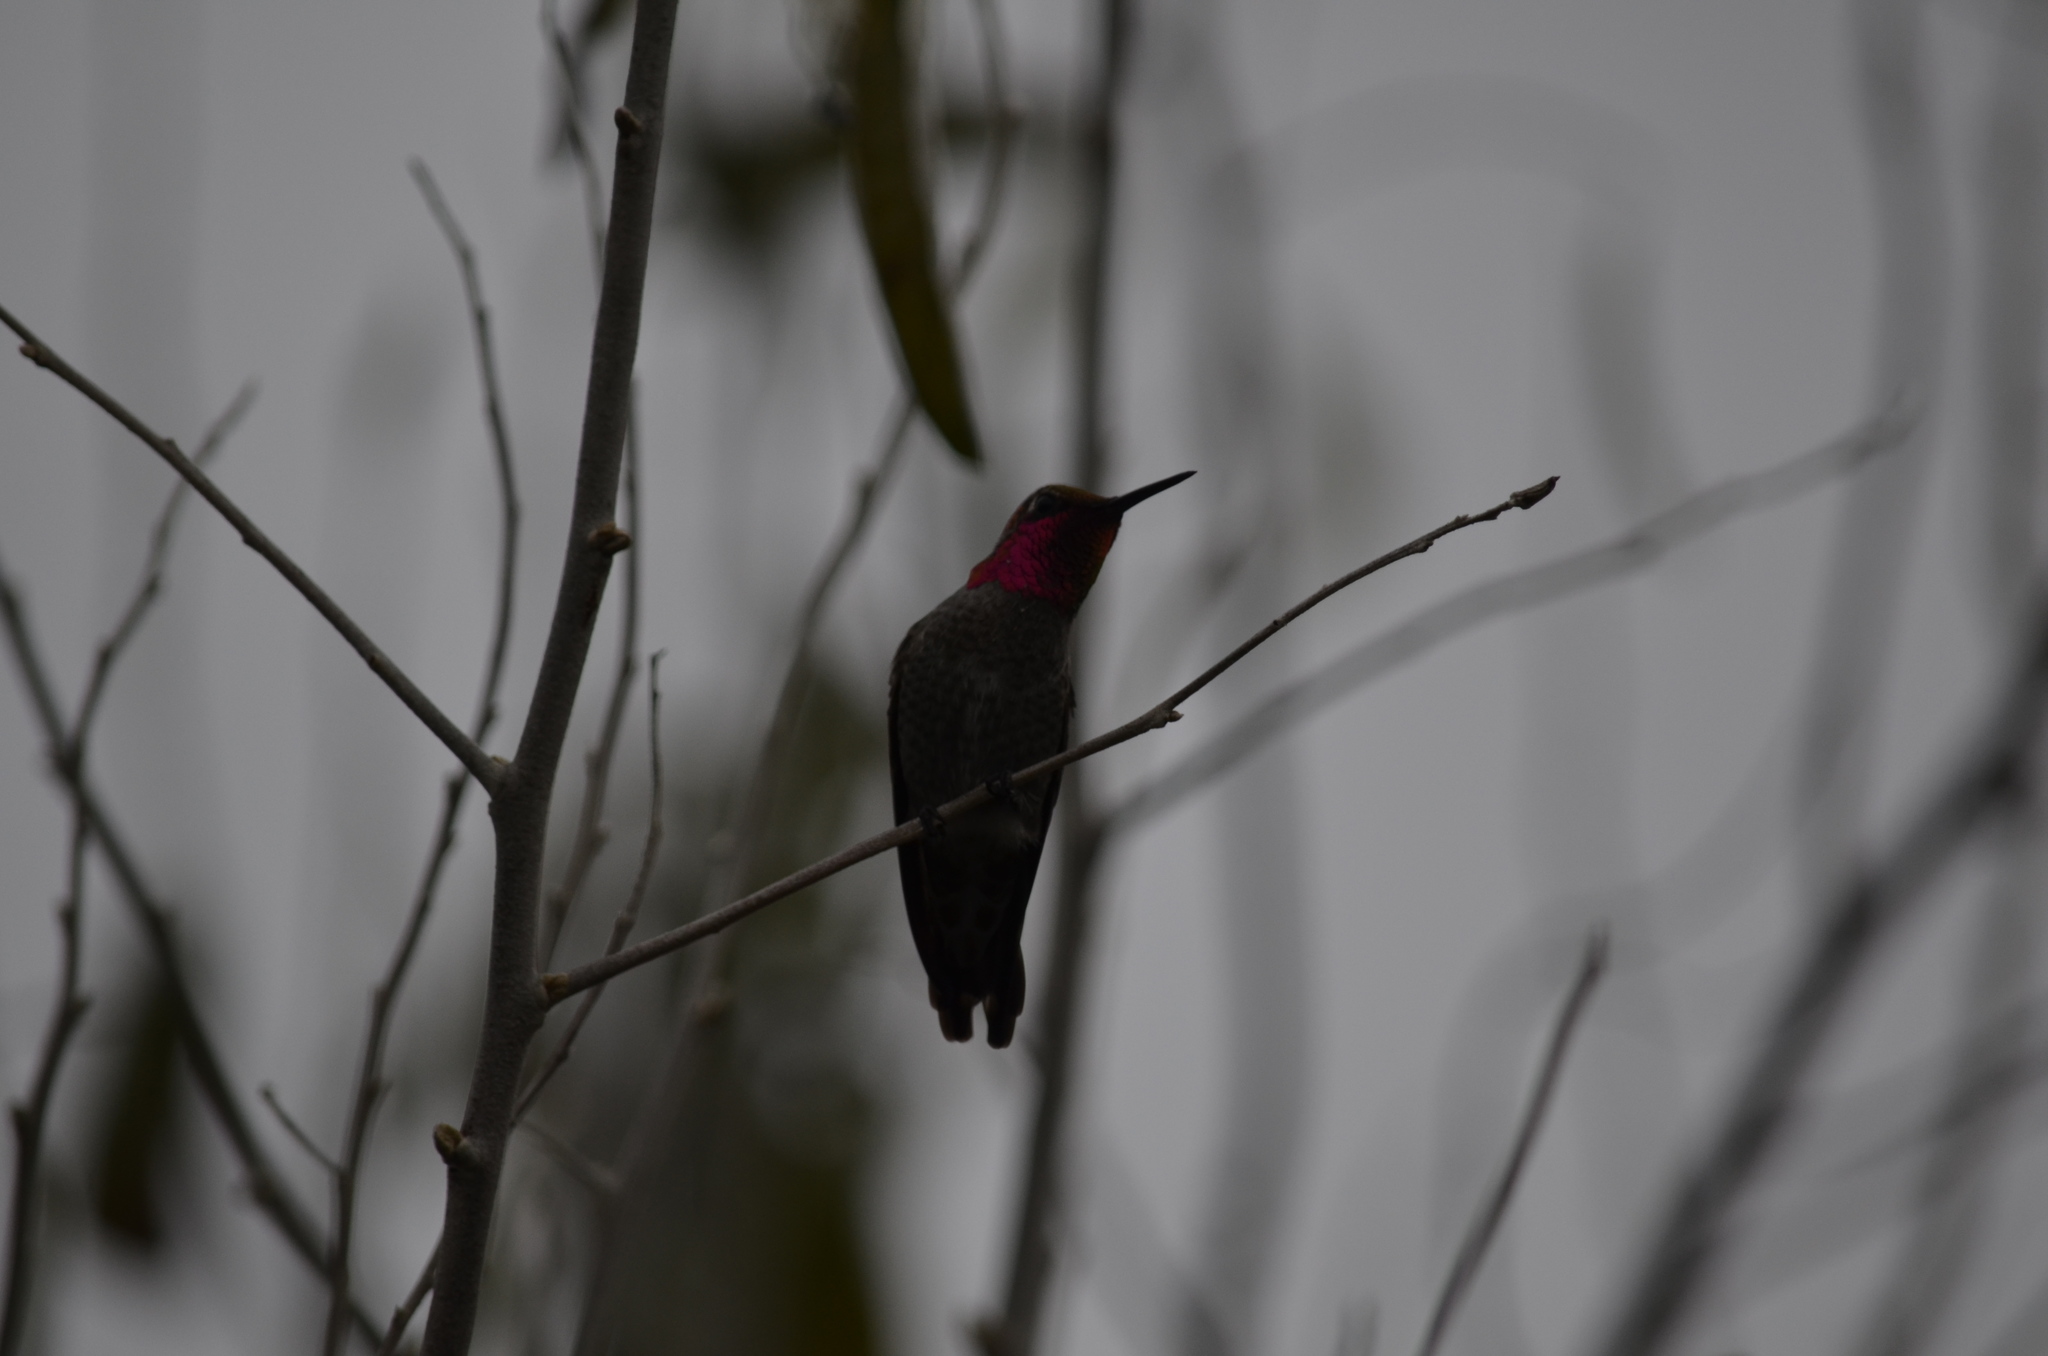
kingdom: Animalia
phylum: Chordata
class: Aves
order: Apodiformes
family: Trochilidae
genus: Calypte
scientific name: Calypte anna
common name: Anna's hummingbird
